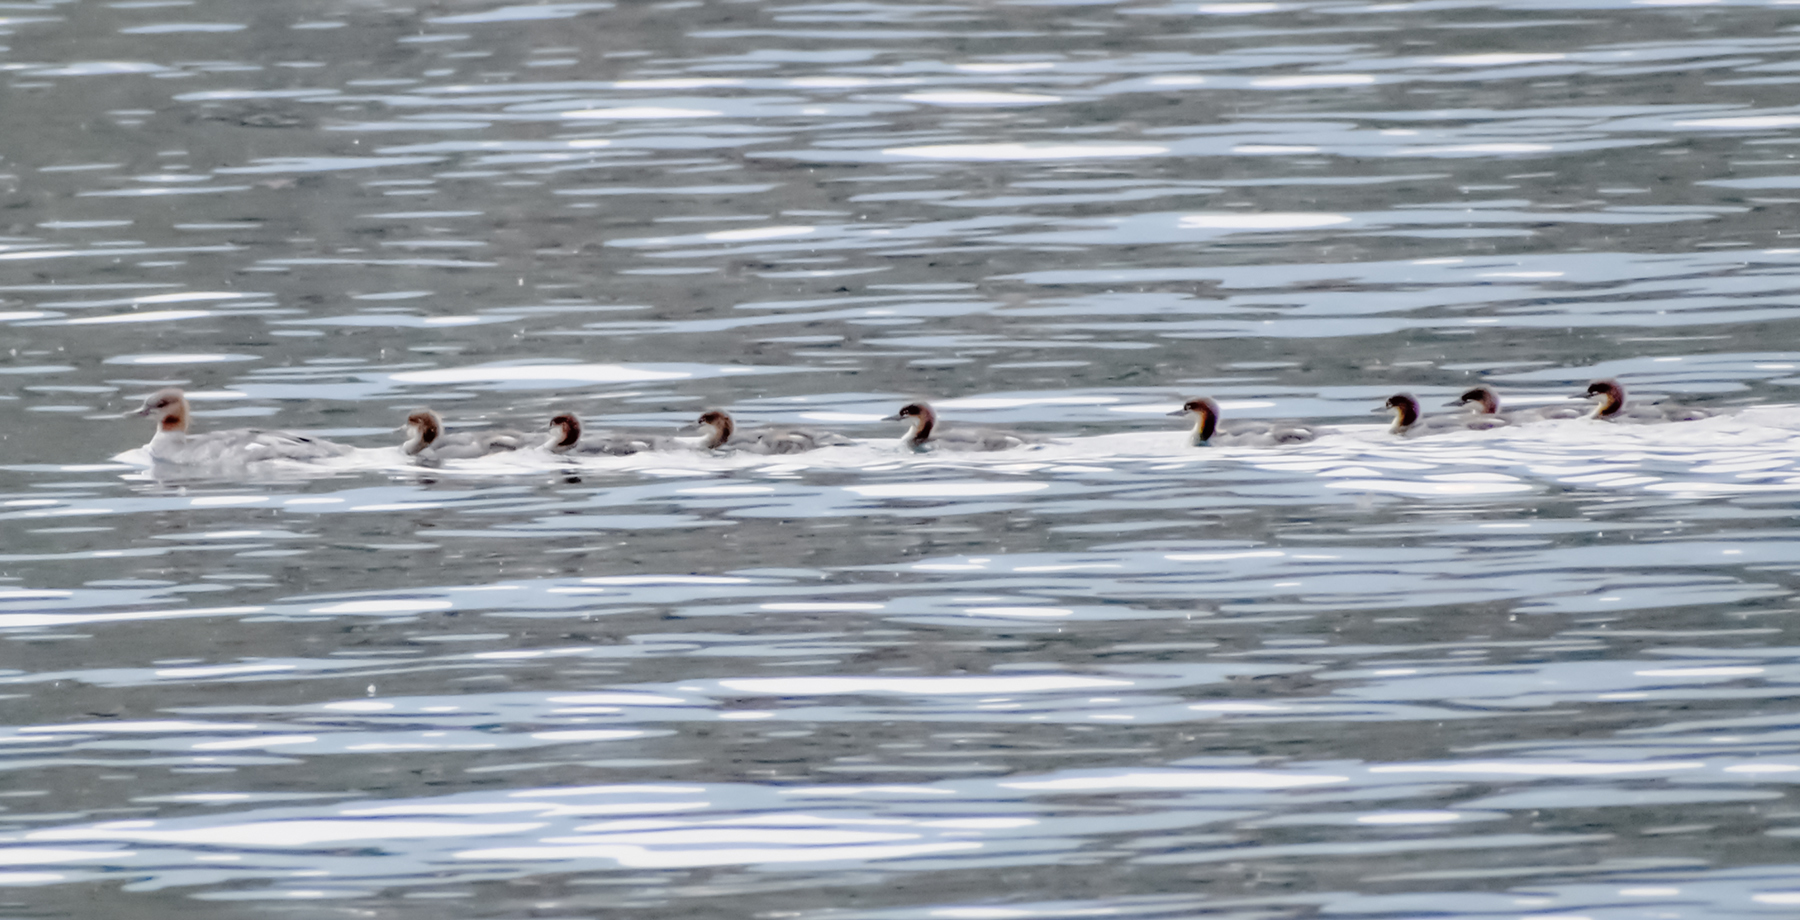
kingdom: Animalia
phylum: Chordata
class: Aves
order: Anseriformes
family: Anatidae
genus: Mergus
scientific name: Mergus merganser
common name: Common merganser
